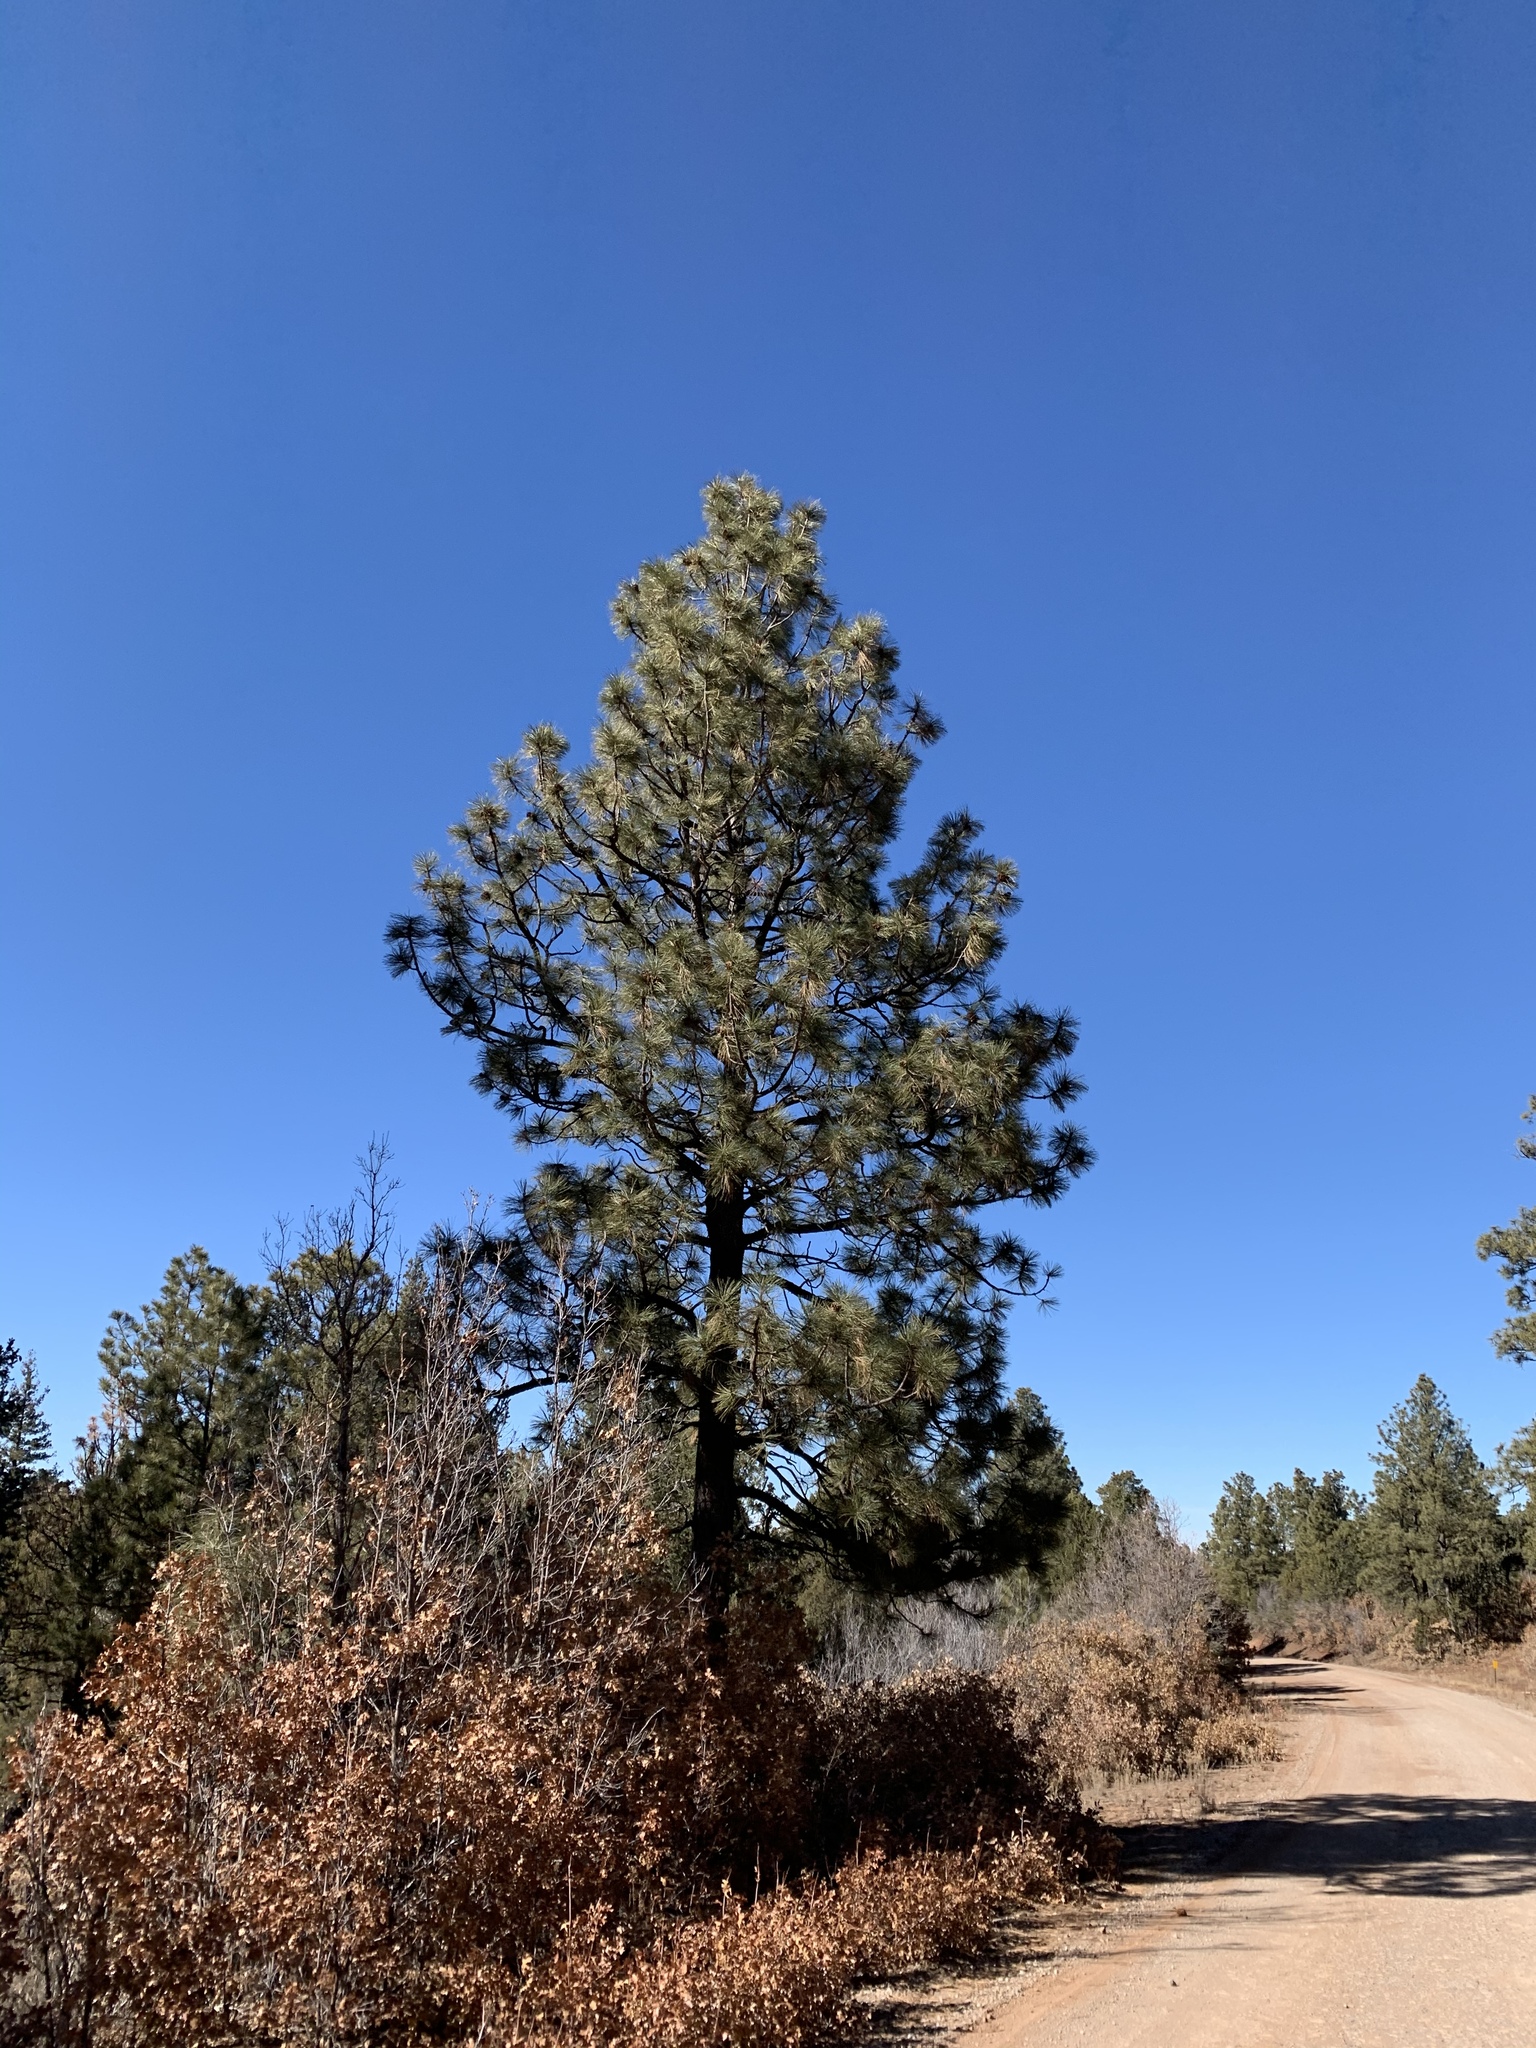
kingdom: Plantae
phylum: Tracheophyta
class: Pinopsida
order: Pinales
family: Pinaceae
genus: Pinus
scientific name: Pinus ponderosa
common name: Western yellow-pine
